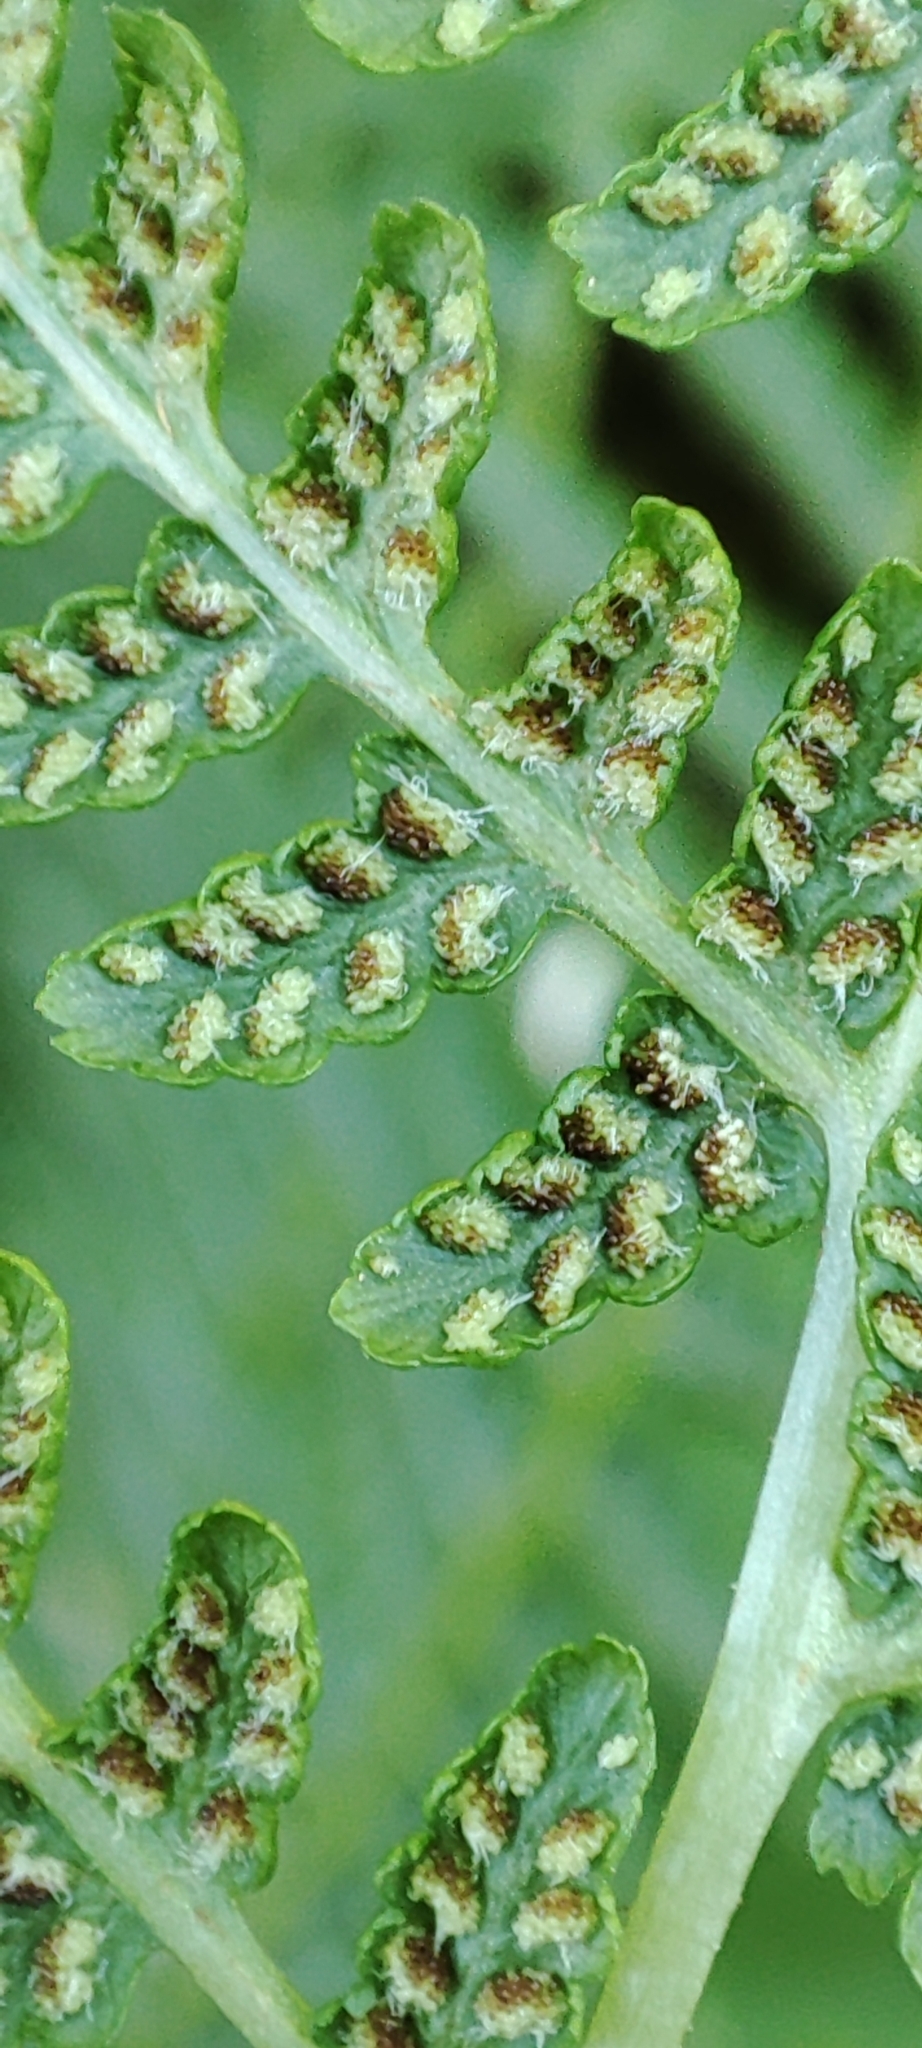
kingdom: Plantae
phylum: Tracheophyta
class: Polypodiopsida
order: Polypodiales
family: Athyriaceae
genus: Athyrium
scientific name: Athyrium filix-femina
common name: Lady fern
